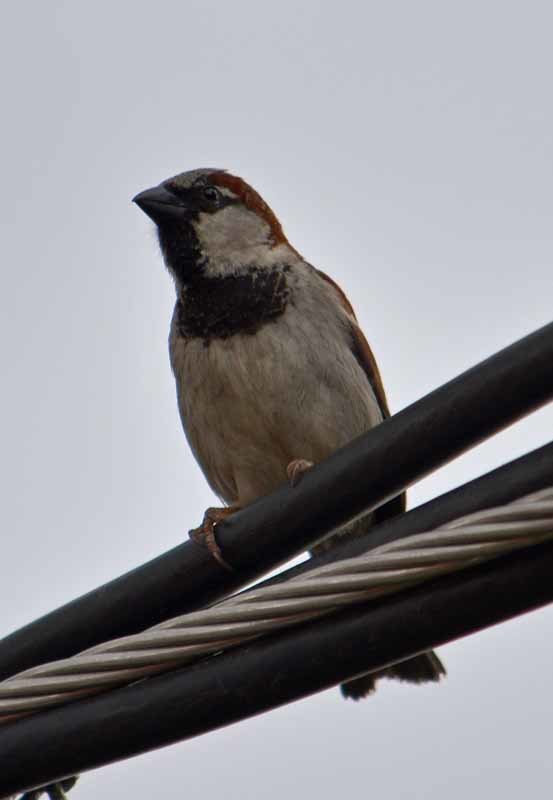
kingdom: Animalia
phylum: Chordata
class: Aves
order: Passeriformes
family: Passeridae
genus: Passer
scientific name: Passer domesticus
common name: House sparrow
